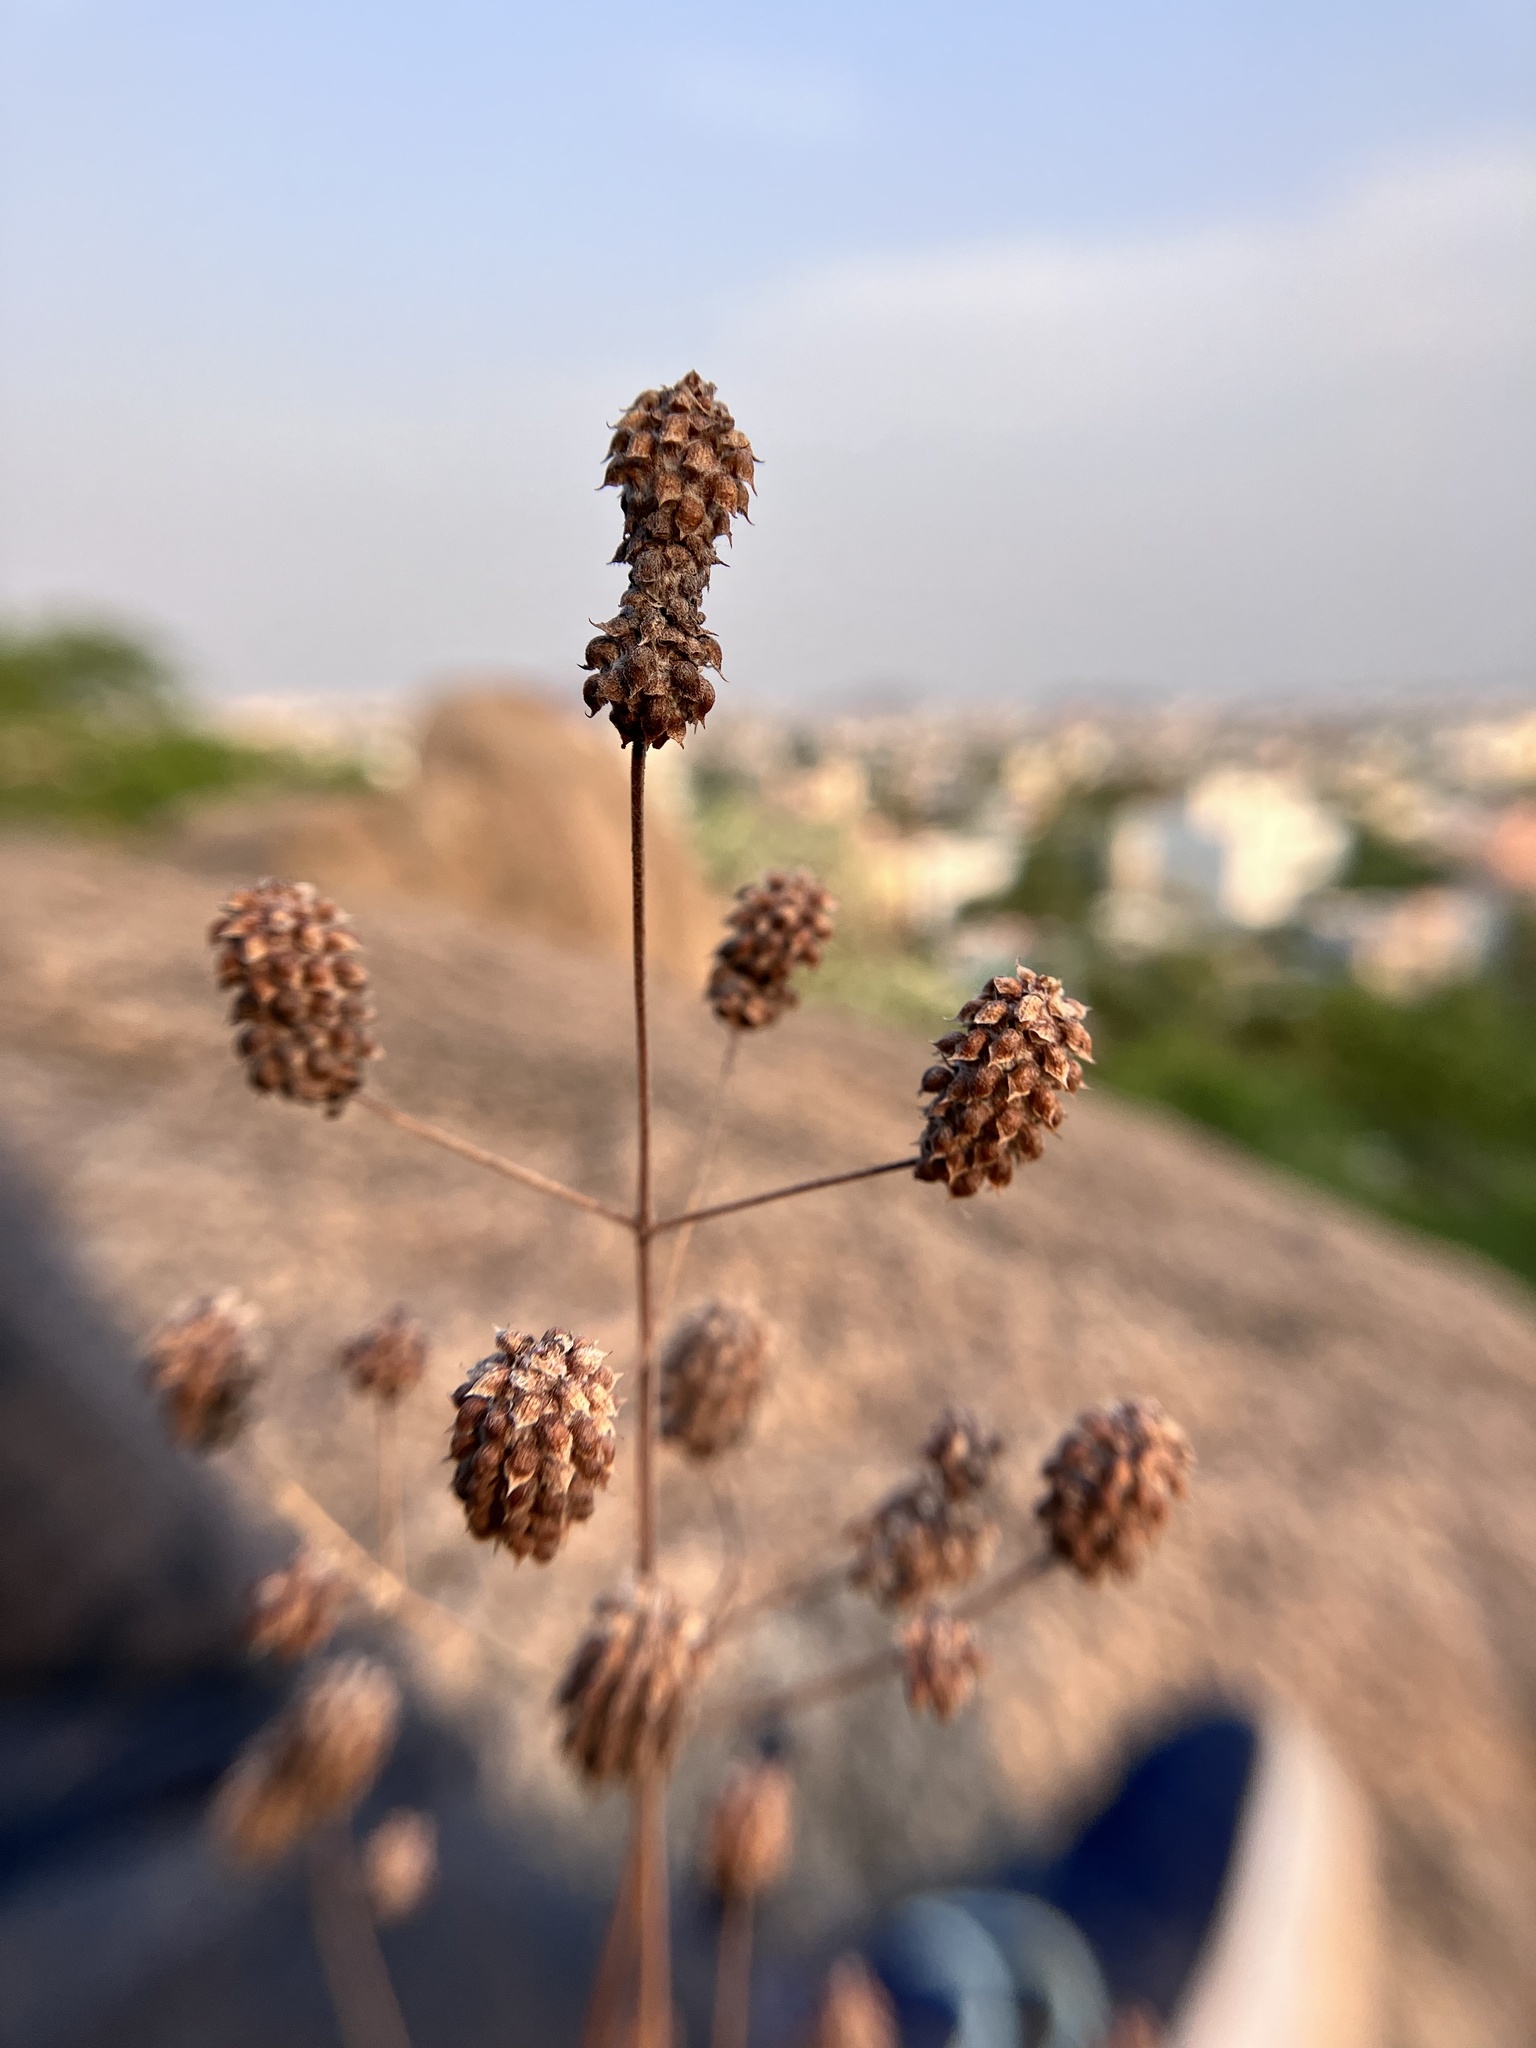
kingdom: Plantae
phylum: Tracheophyta
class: Magnoliopsida
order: Lamiales
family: Lamiaceae
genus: Coleus
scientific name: Coleus strobilifer
